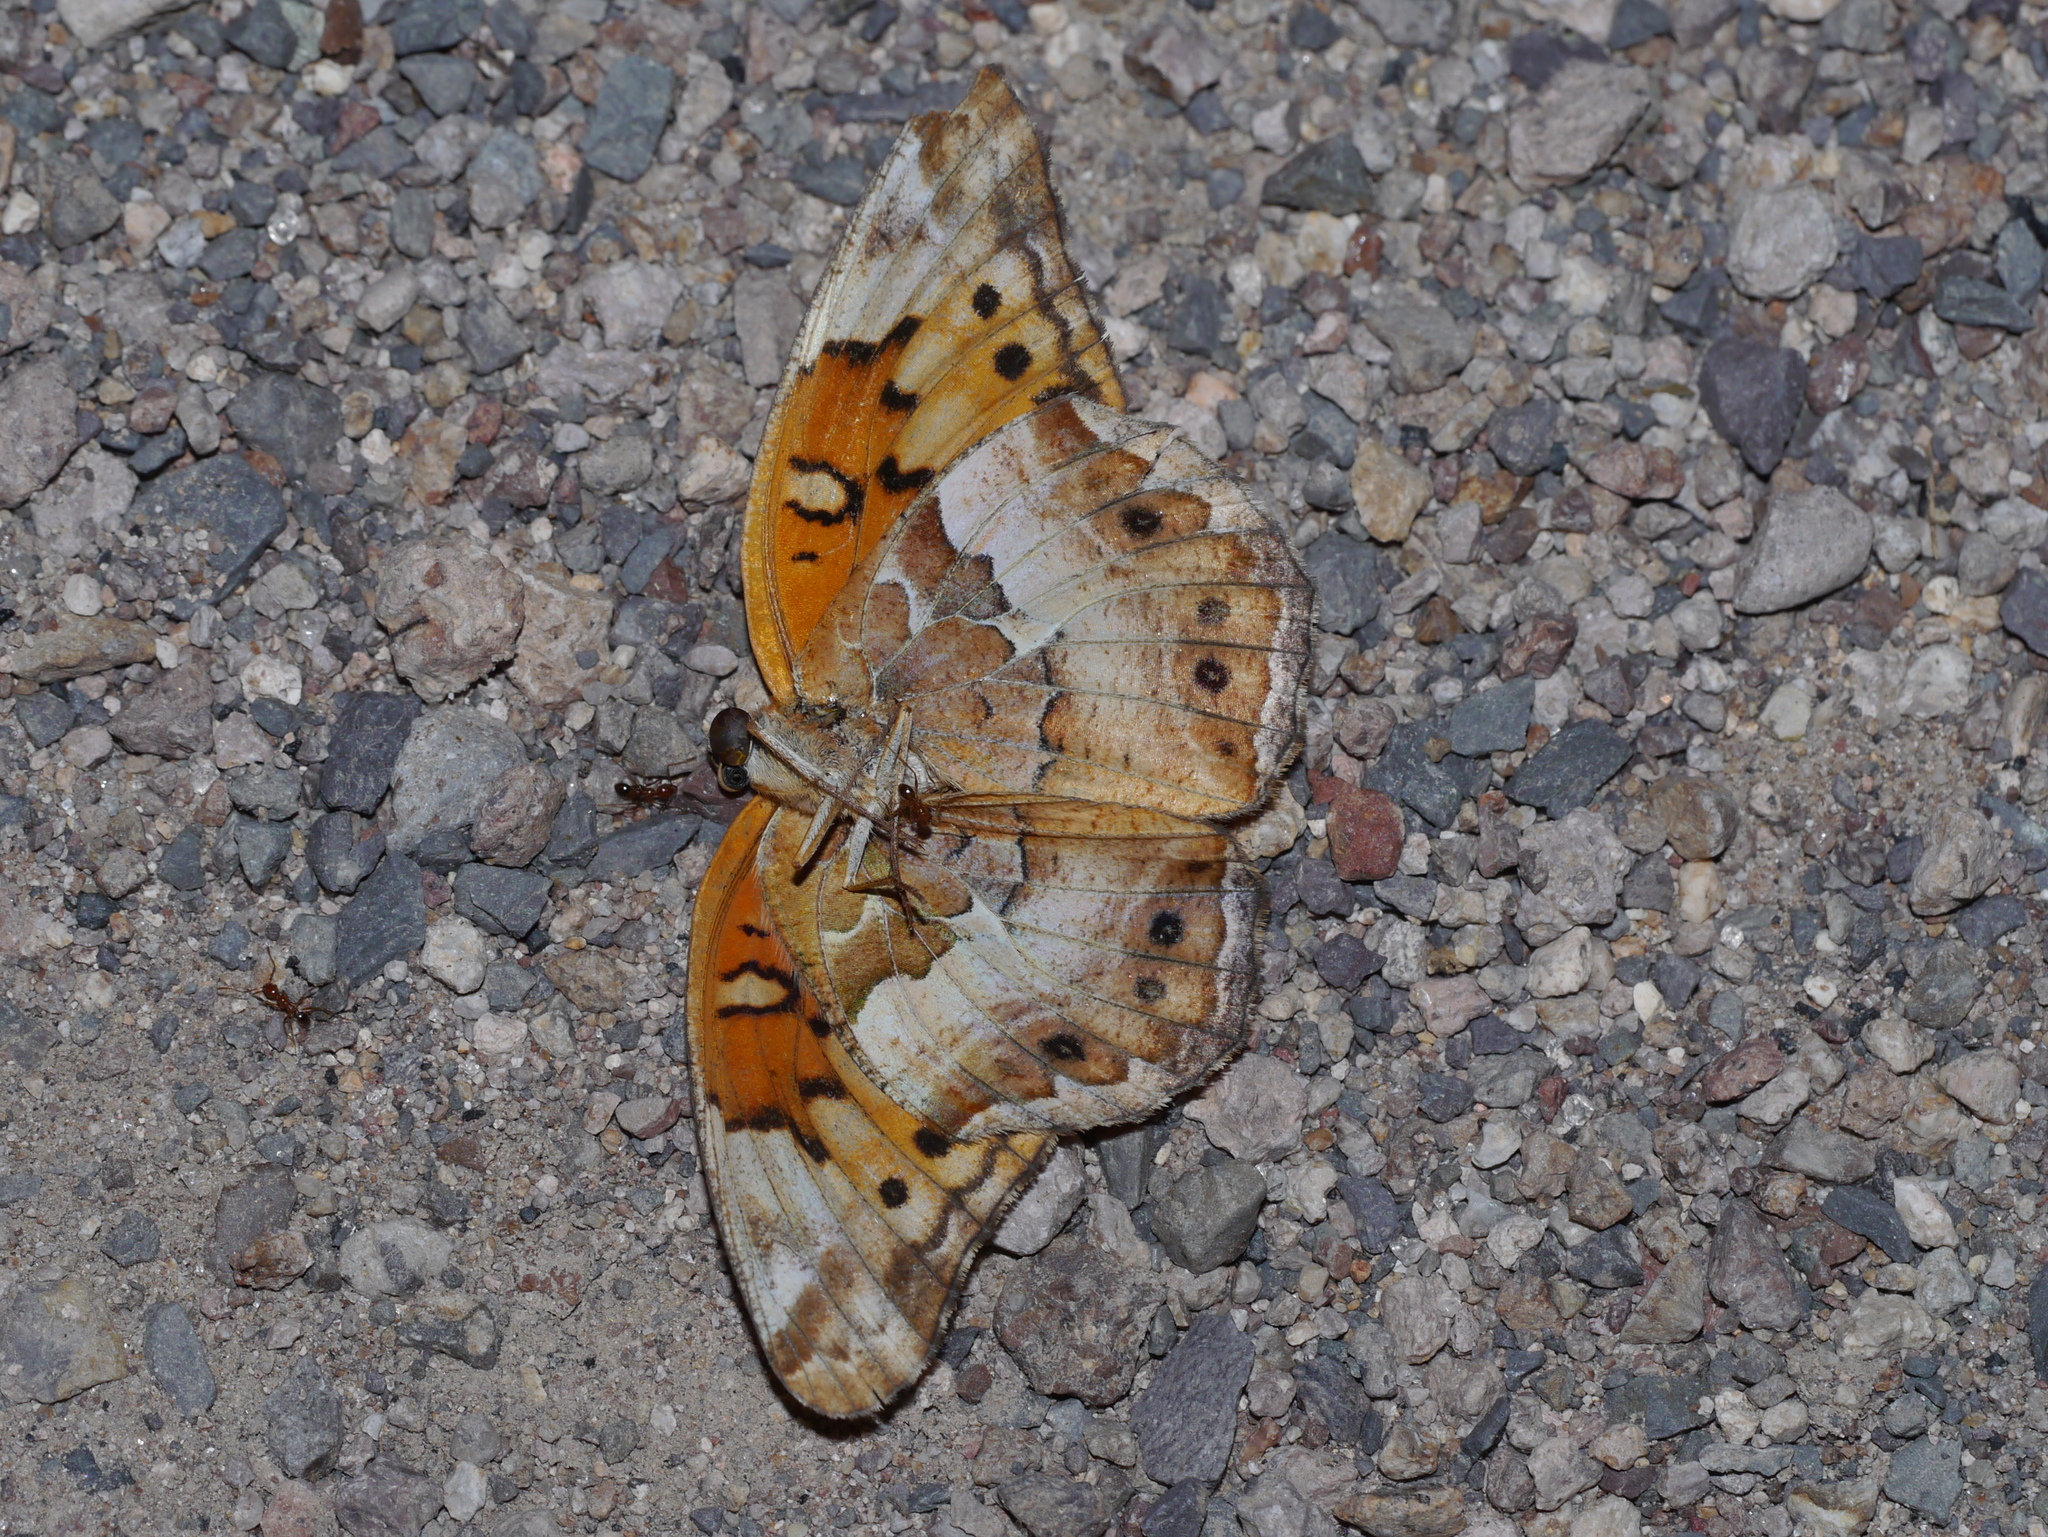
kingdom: Animalia
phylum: Arthropoda
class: Insecta
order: Lepidoptera
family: Nymphalidae
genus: Euptoieta
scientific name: Euptoieta claudia
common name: Variegated fritillary
